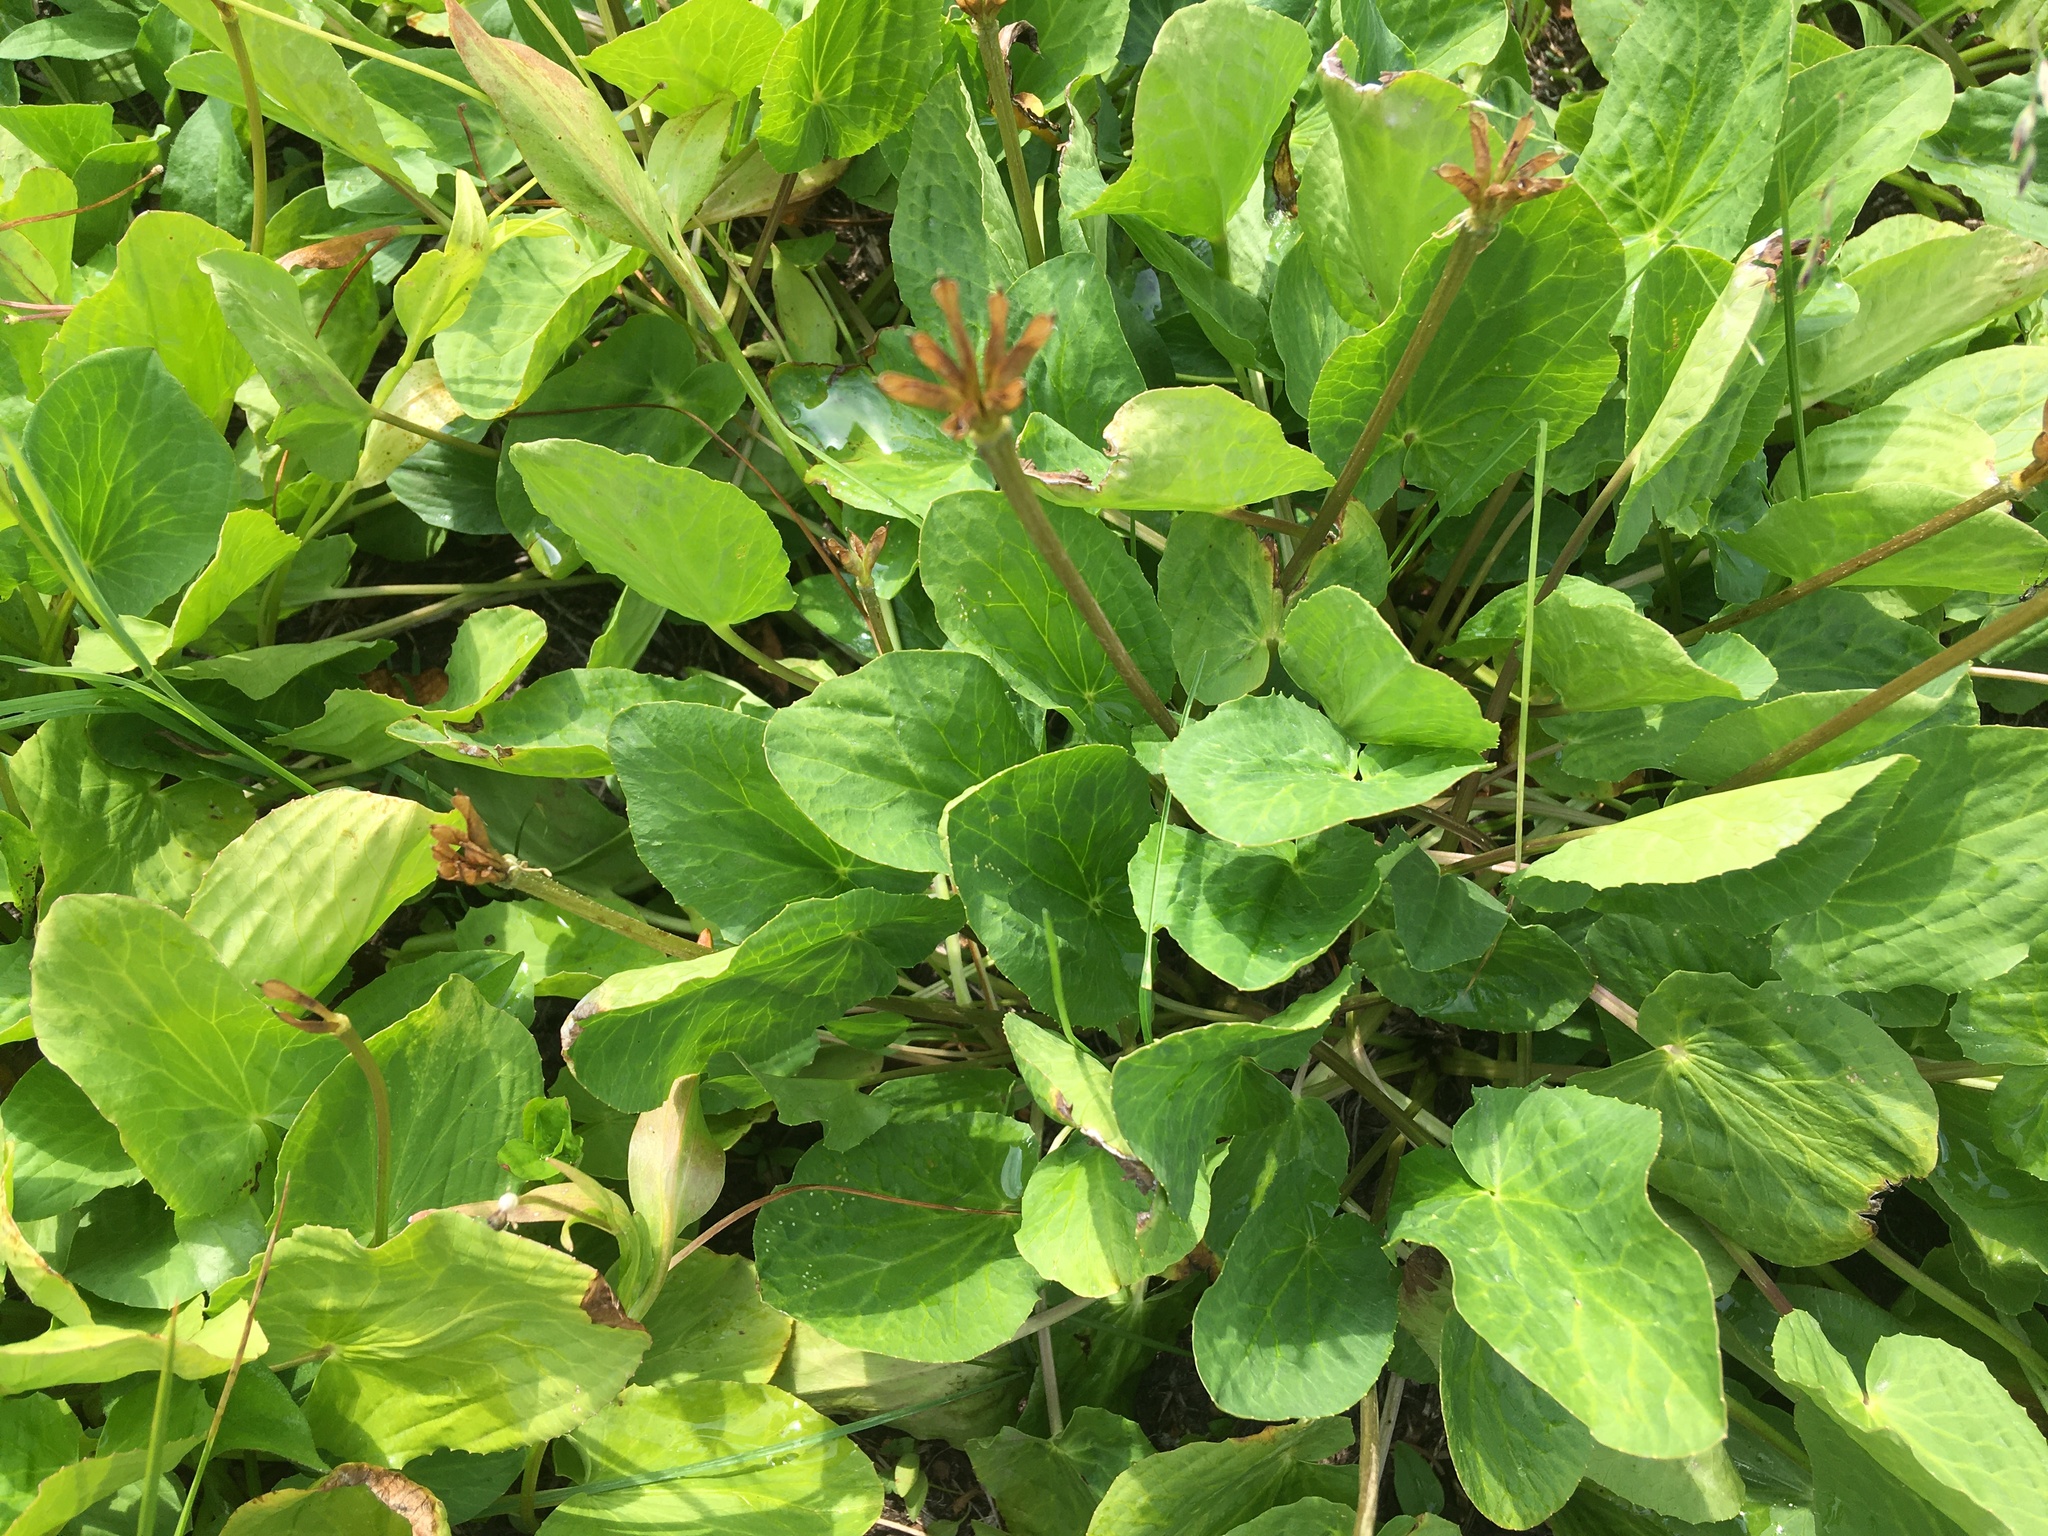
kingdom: Plantae
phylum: Tracheophyta
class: Magnoliopsida
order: Ranunculales
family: Ranunculaceae
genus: Caltha
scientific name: Caltha leptosepala
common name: Elkslip
